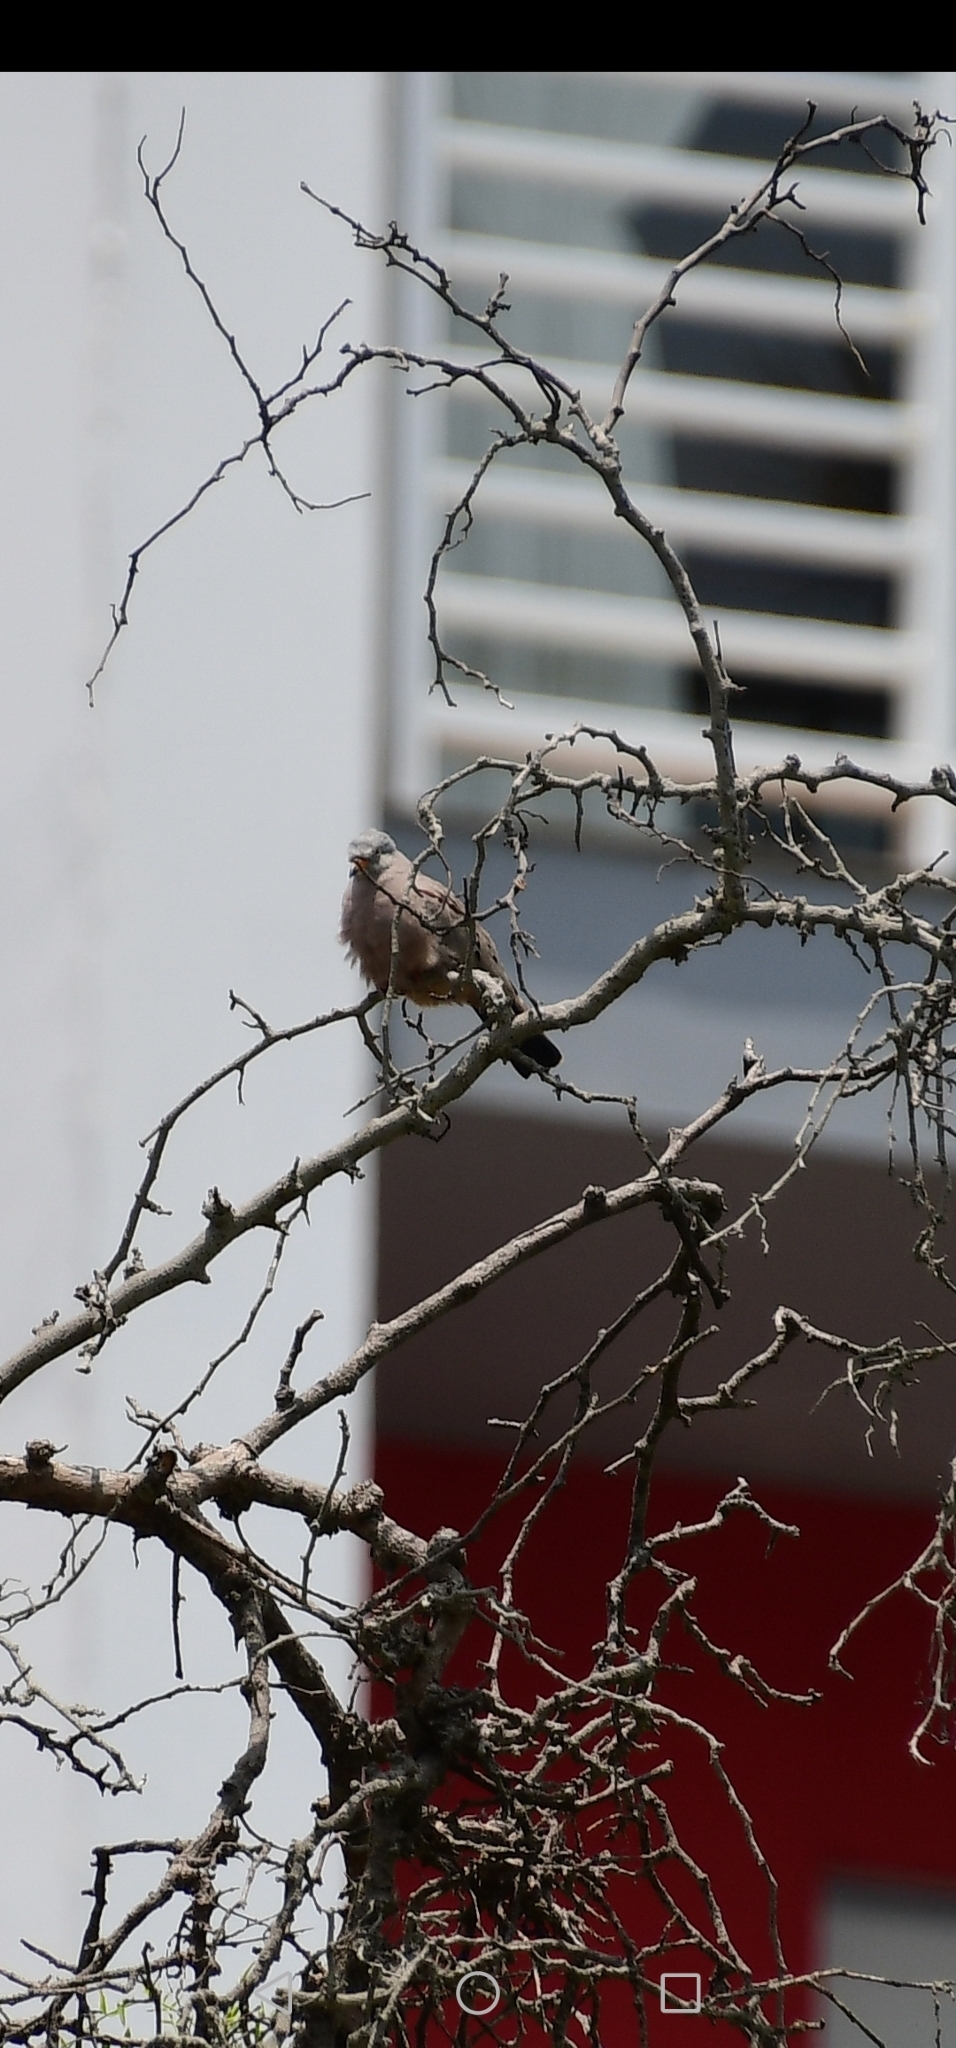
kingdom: Animalia
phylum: Chordata
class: Aves
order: Columbiformes
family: Columbidae
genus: Columbina
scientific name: Columbina cruziana
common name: Croaking ground dove
